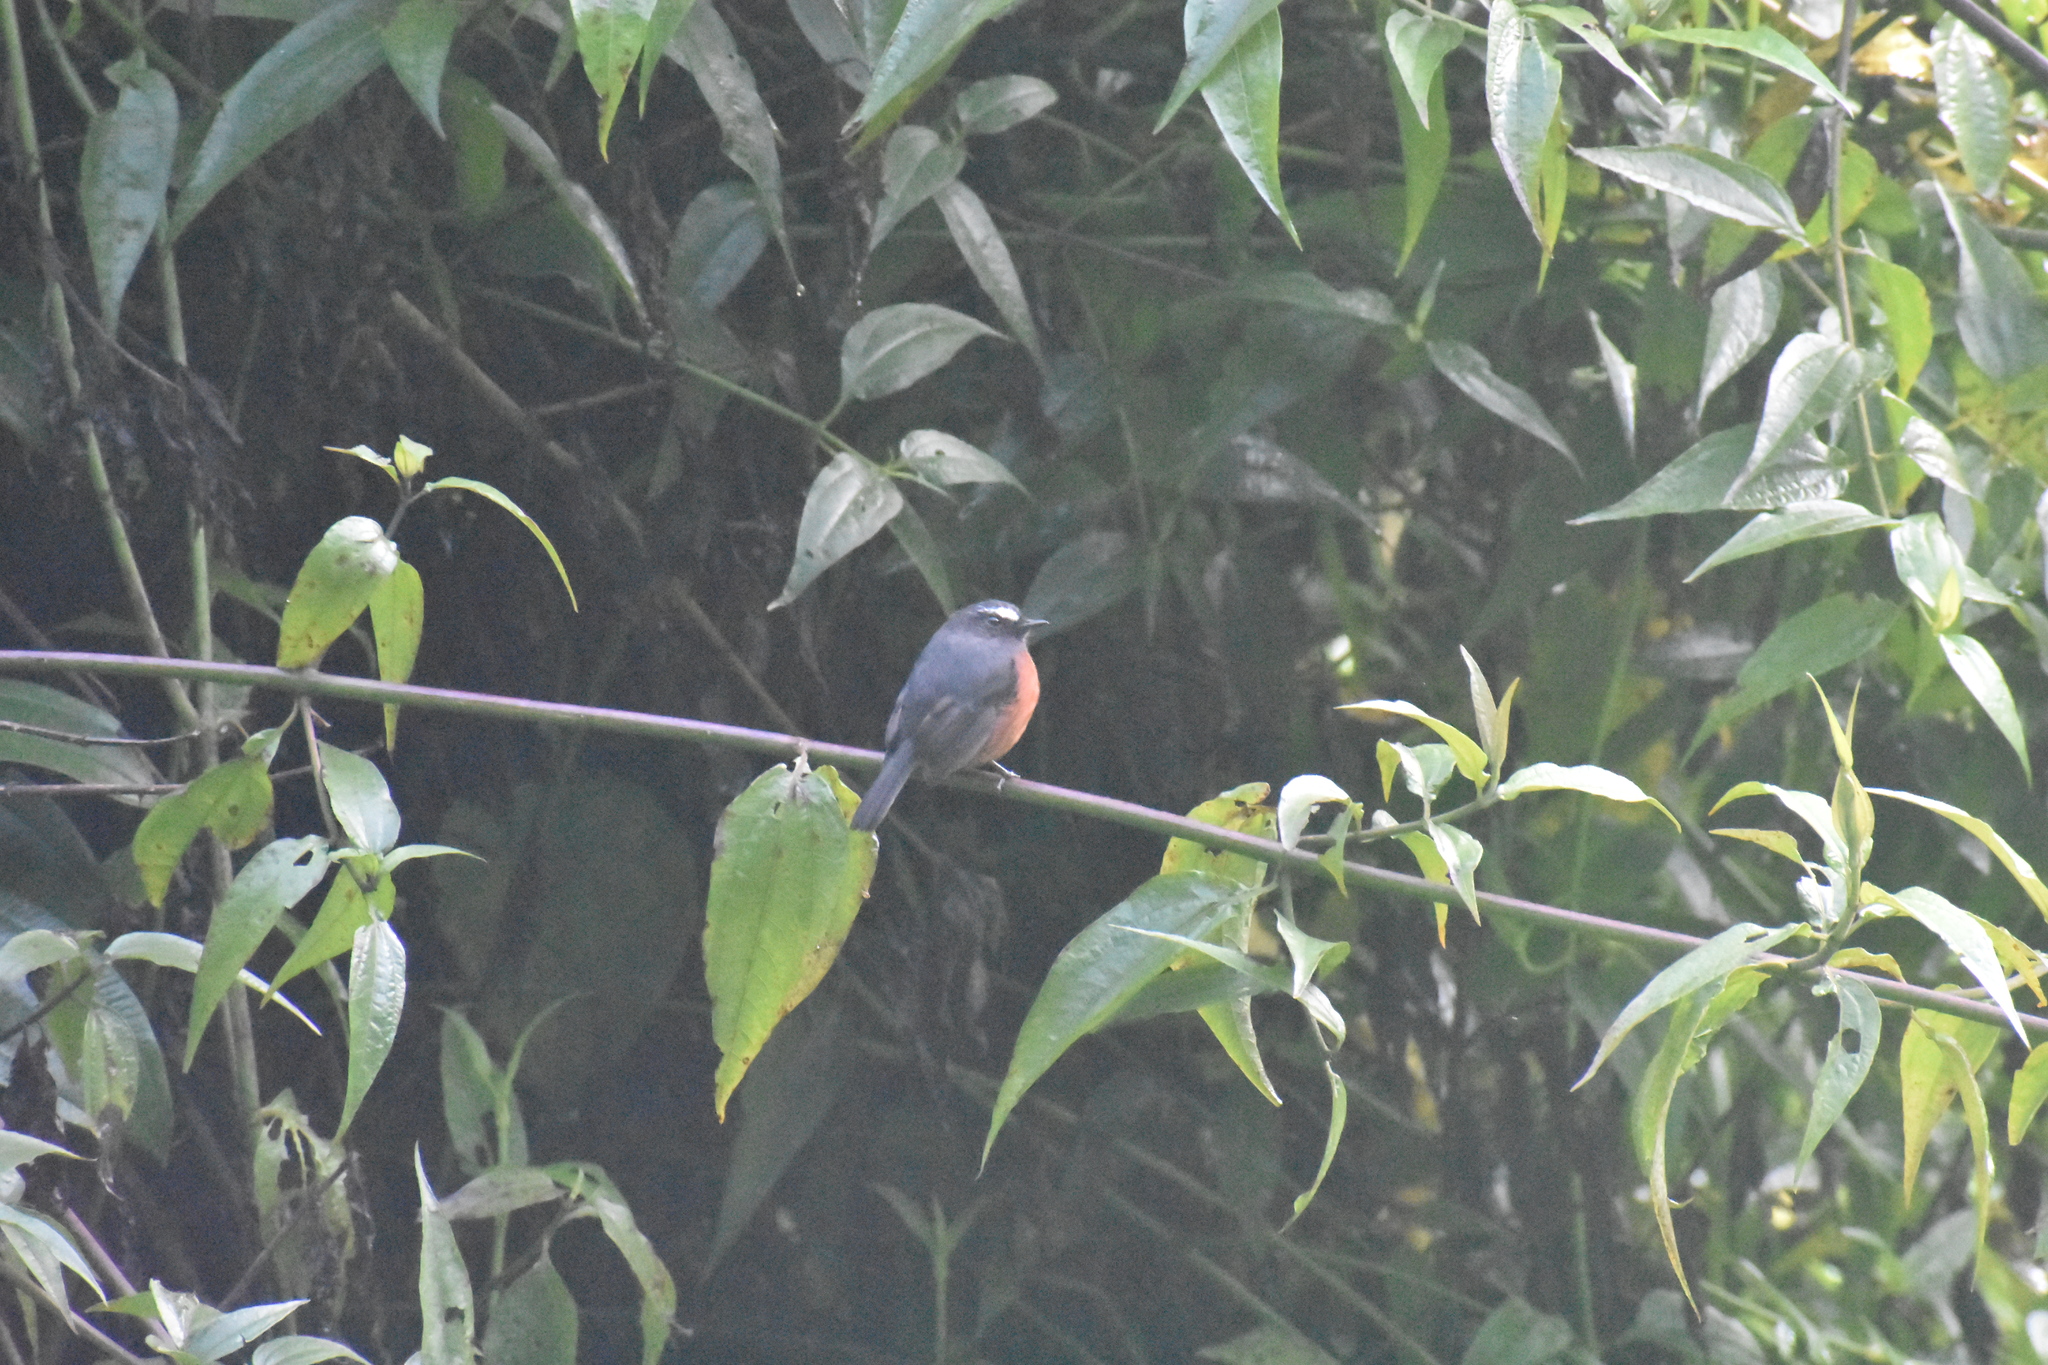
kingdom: Animalia
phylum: Chordata
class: Aves
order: Passeriformes
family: Tyrannidae
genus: Ochthoeca
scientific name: Ochthoeca cinnamomeiventris
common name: Slaty-backed chat-tyrant
